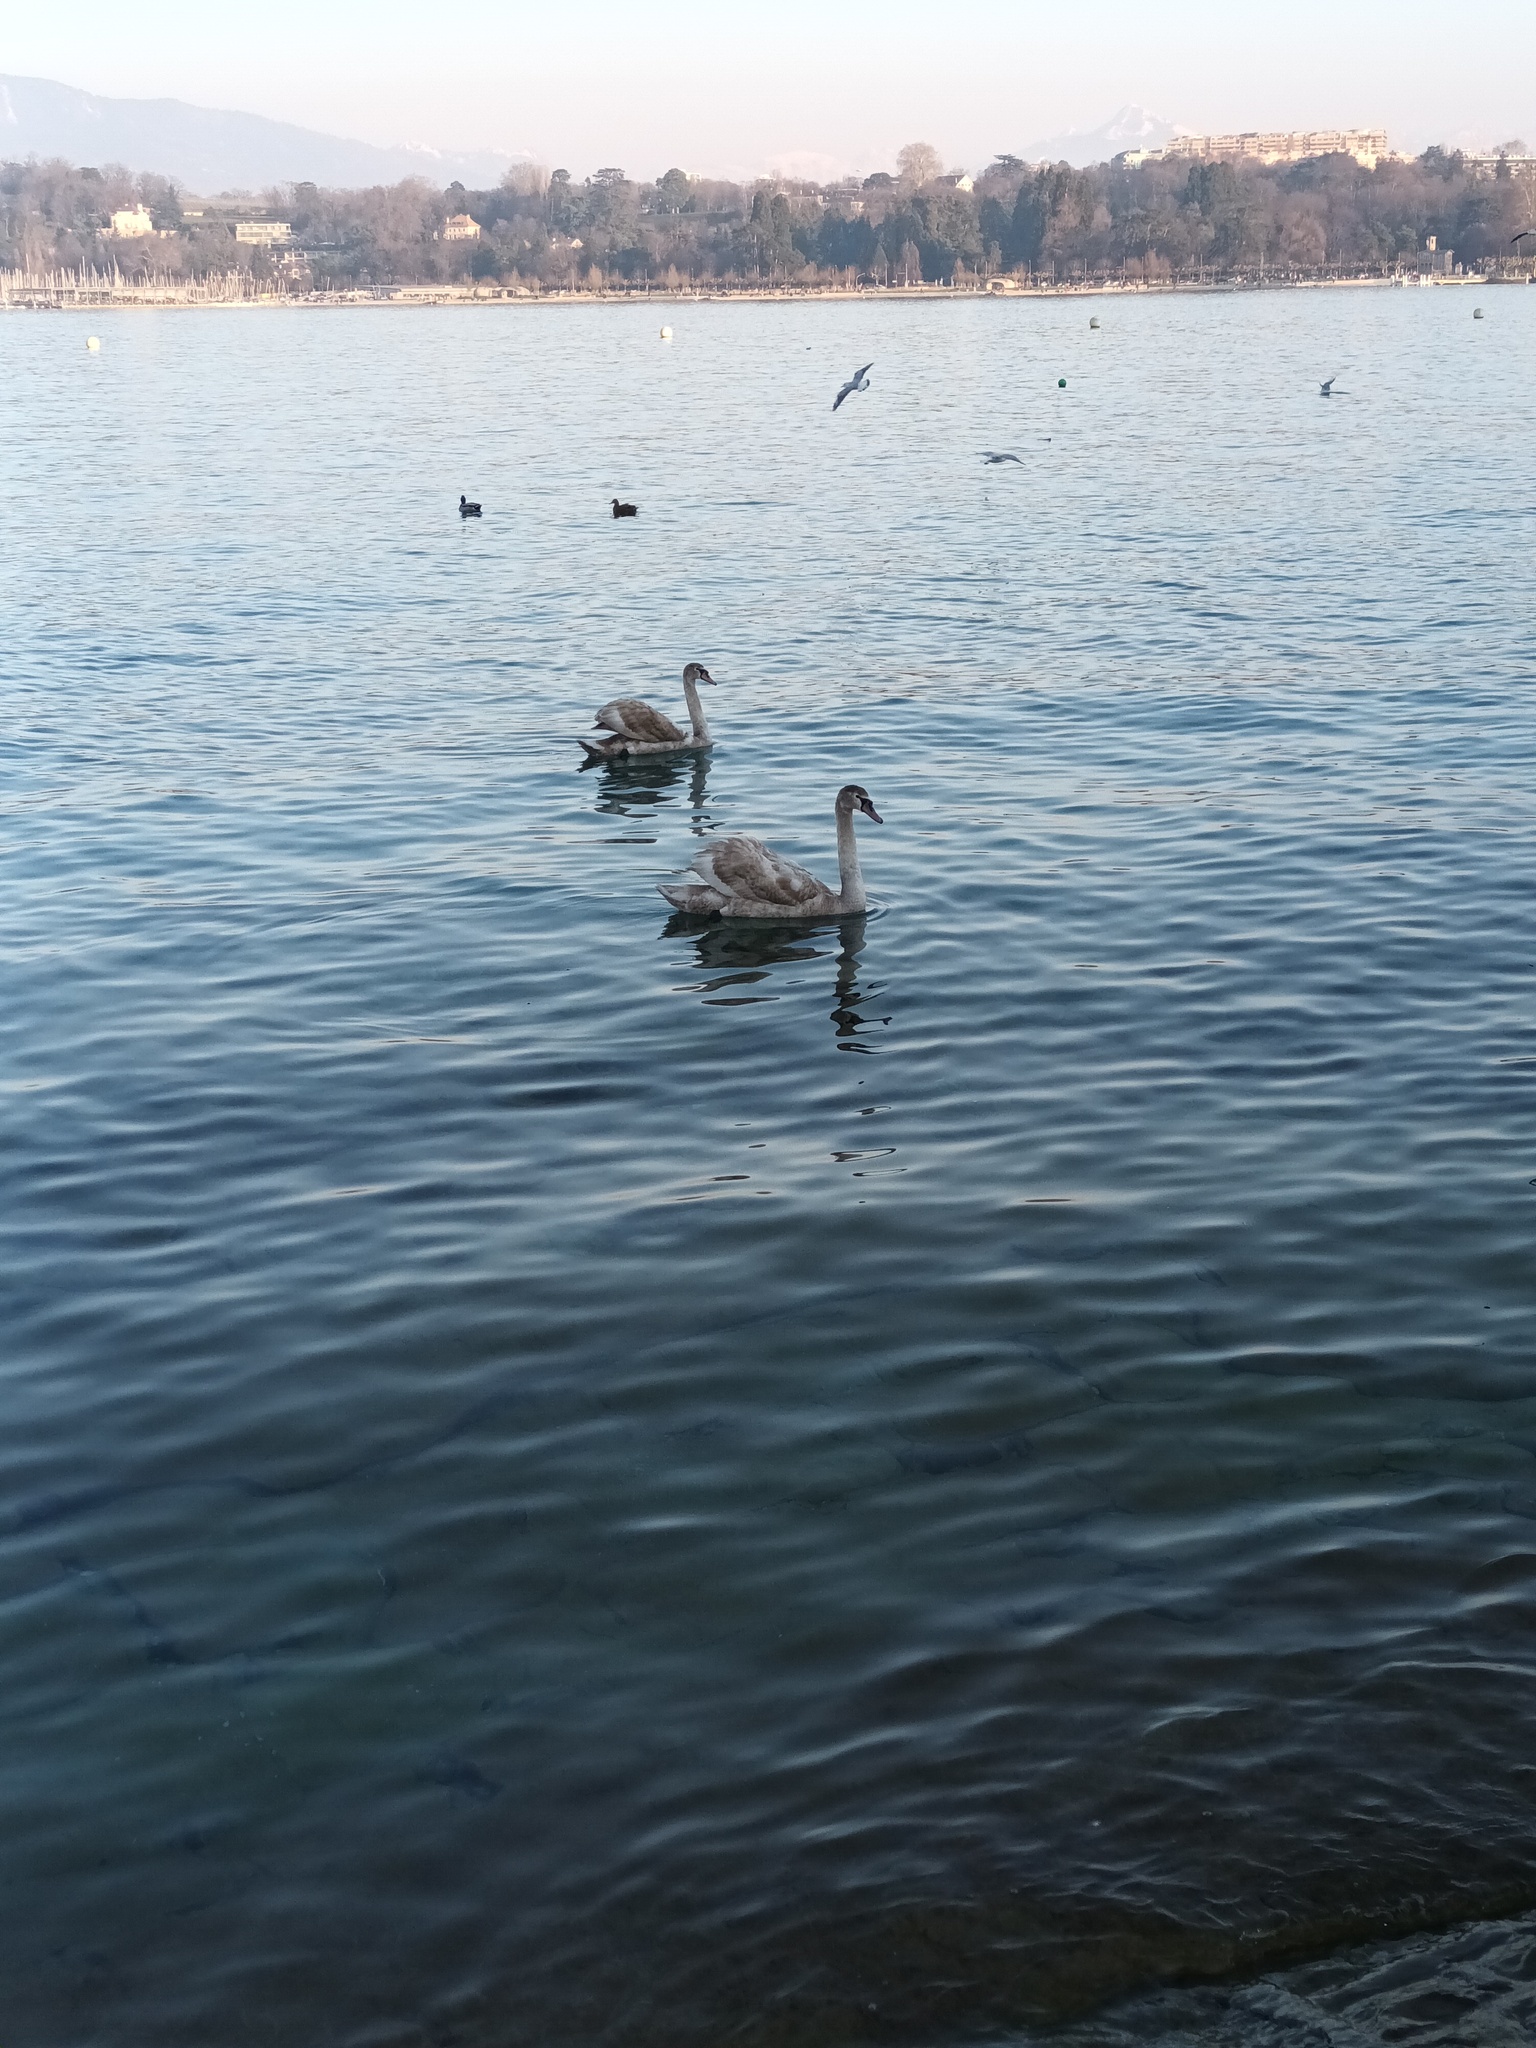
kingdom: Animalia
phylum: Chordata
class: Aves
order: Anseriformes
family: Anatidae
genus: Cygnus
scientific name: Cygnus olor
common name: Mute swan
